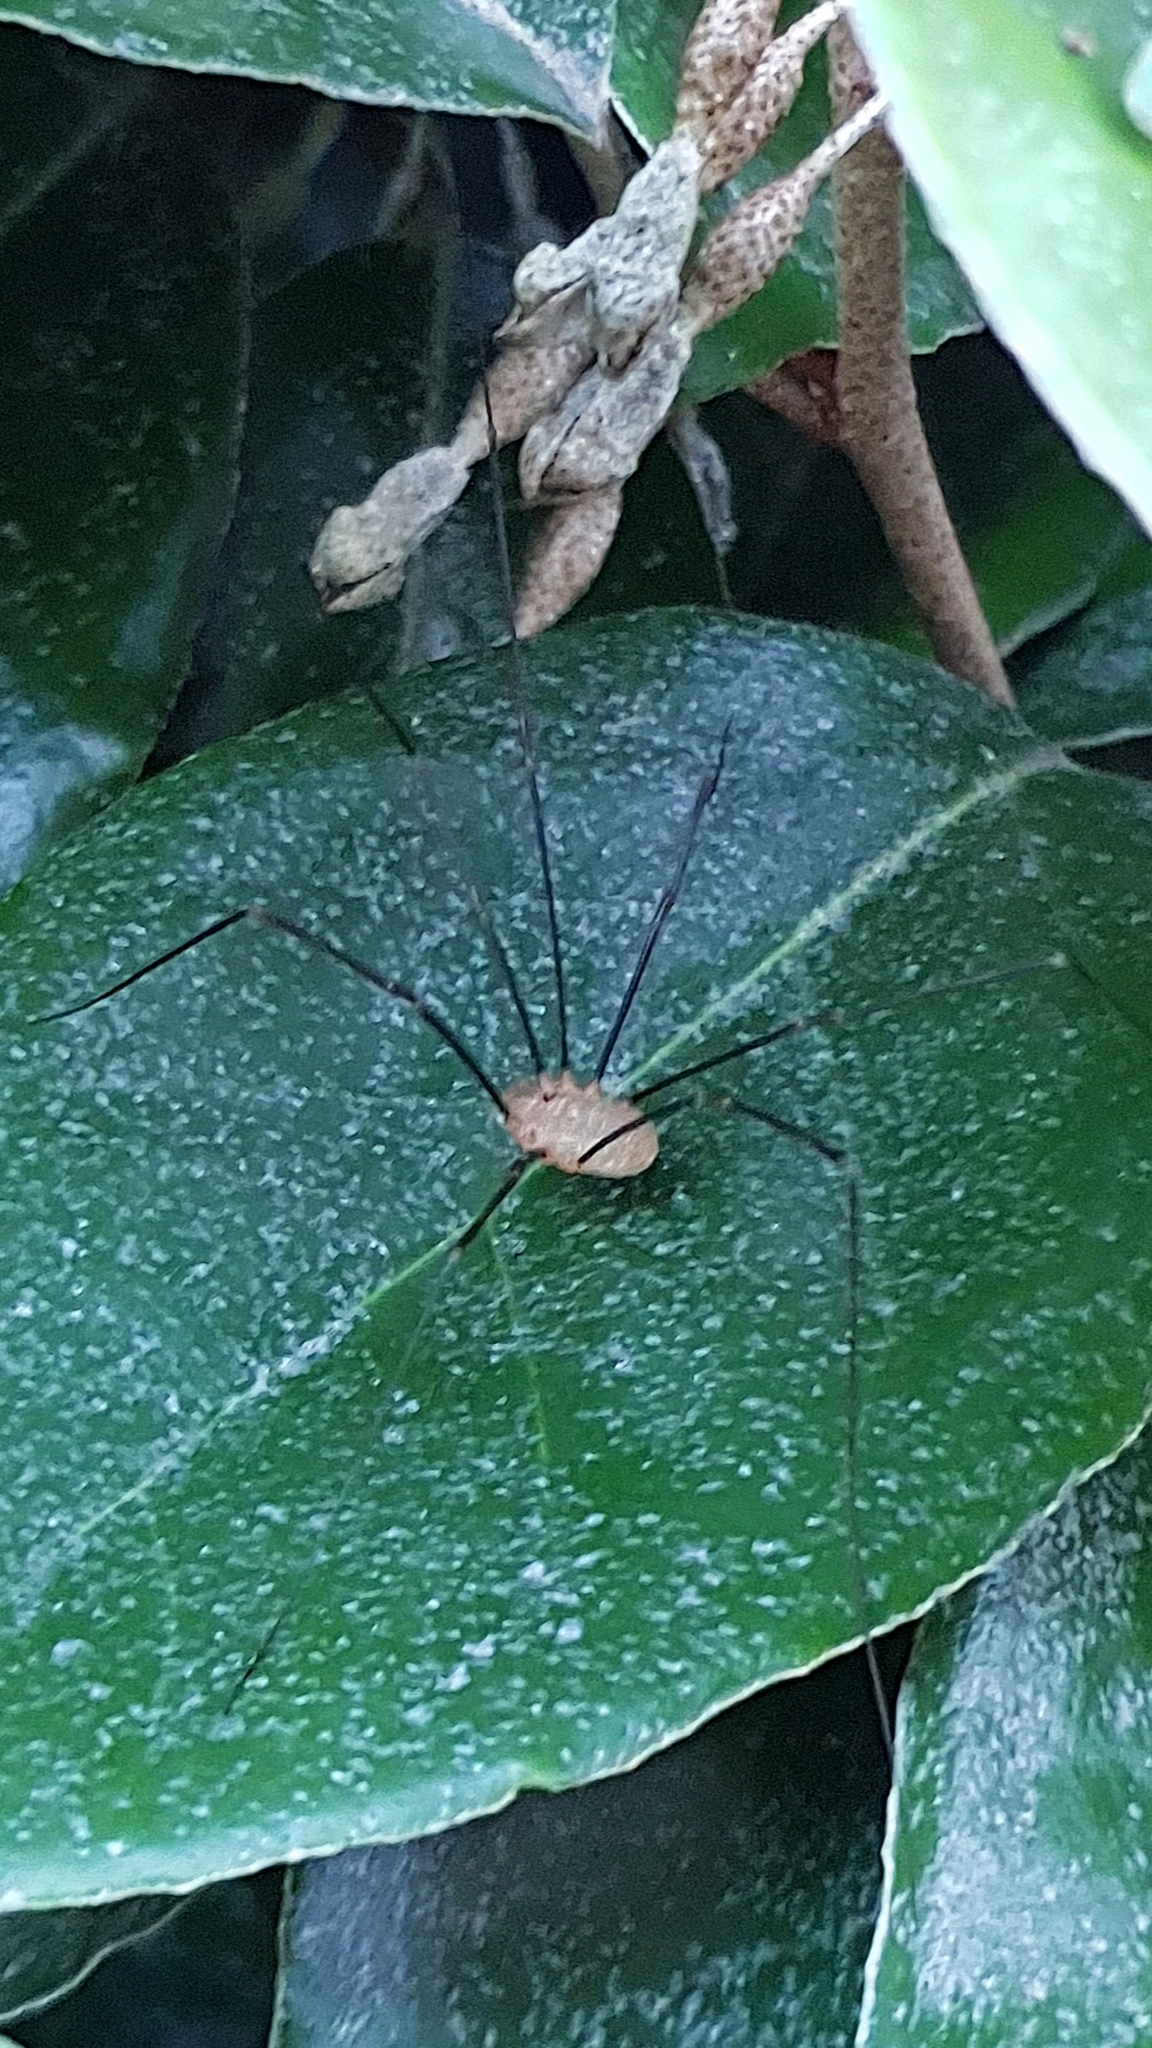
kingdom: Animalia
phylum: Arthropoda
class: Arachnida
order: Opiliones
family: Phalangiidae
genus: Opilio
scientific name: Opilio canestrinii
